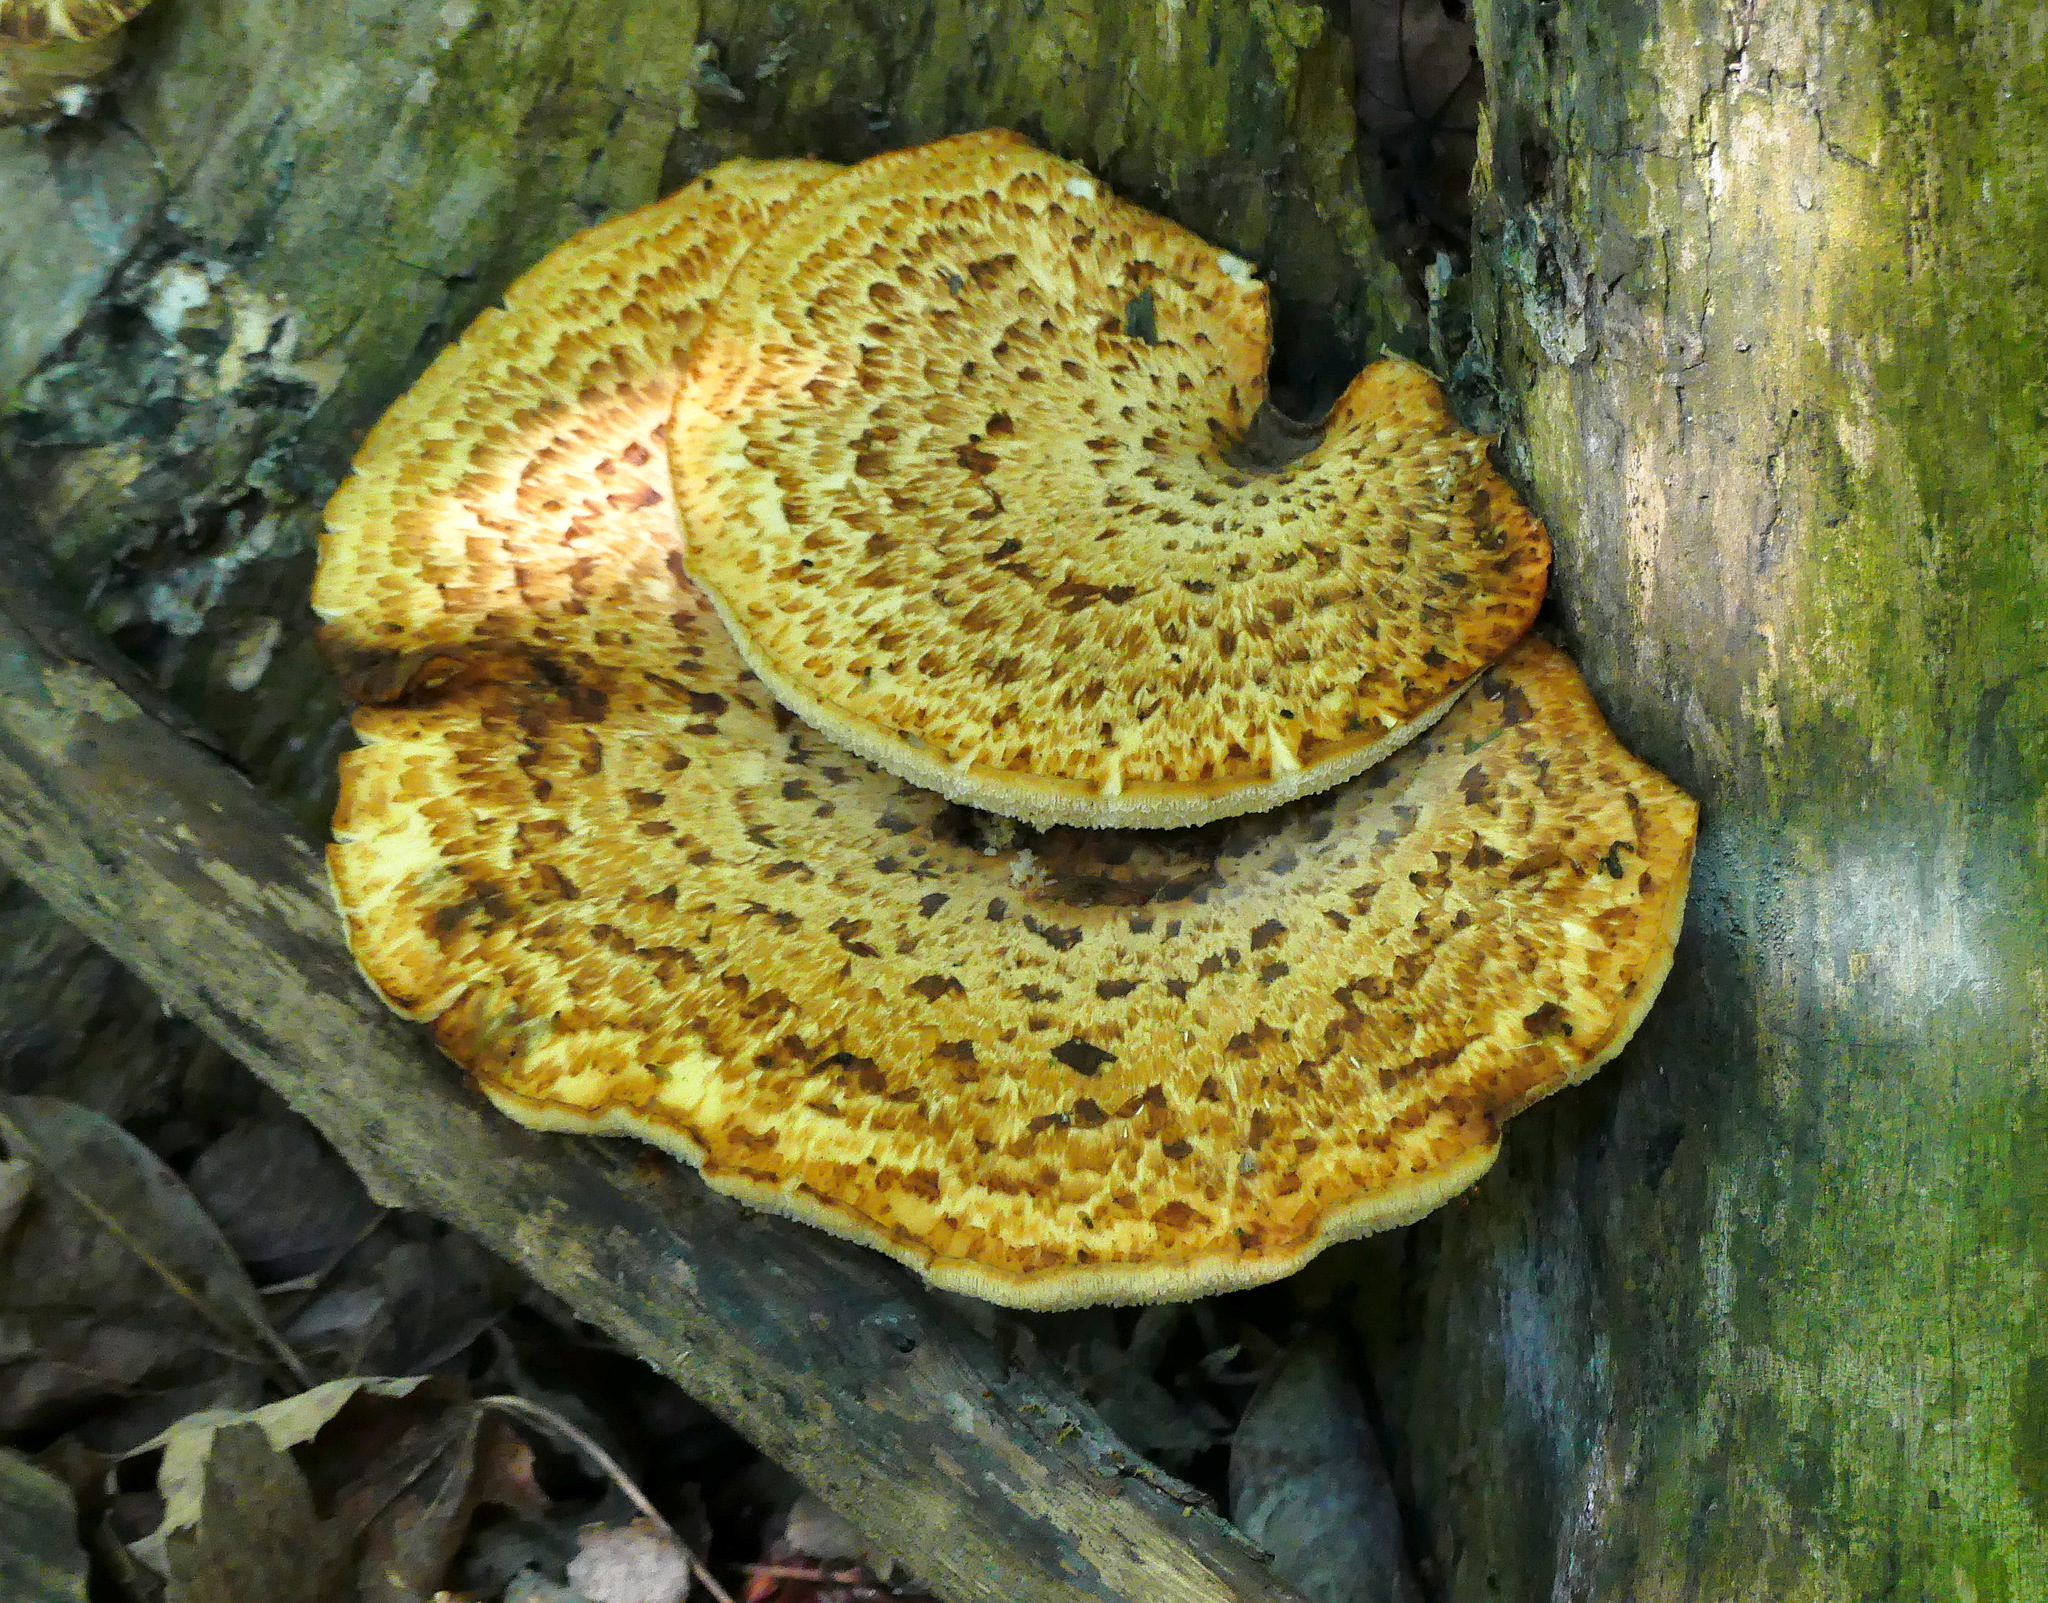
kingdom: Fungi
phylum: Basidiomycota
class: Agaricomycetes
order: Polyporales
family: Polyporaceae
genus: Cerioporus
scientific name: Cerioporus squamosus
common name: Dryad's saddle
